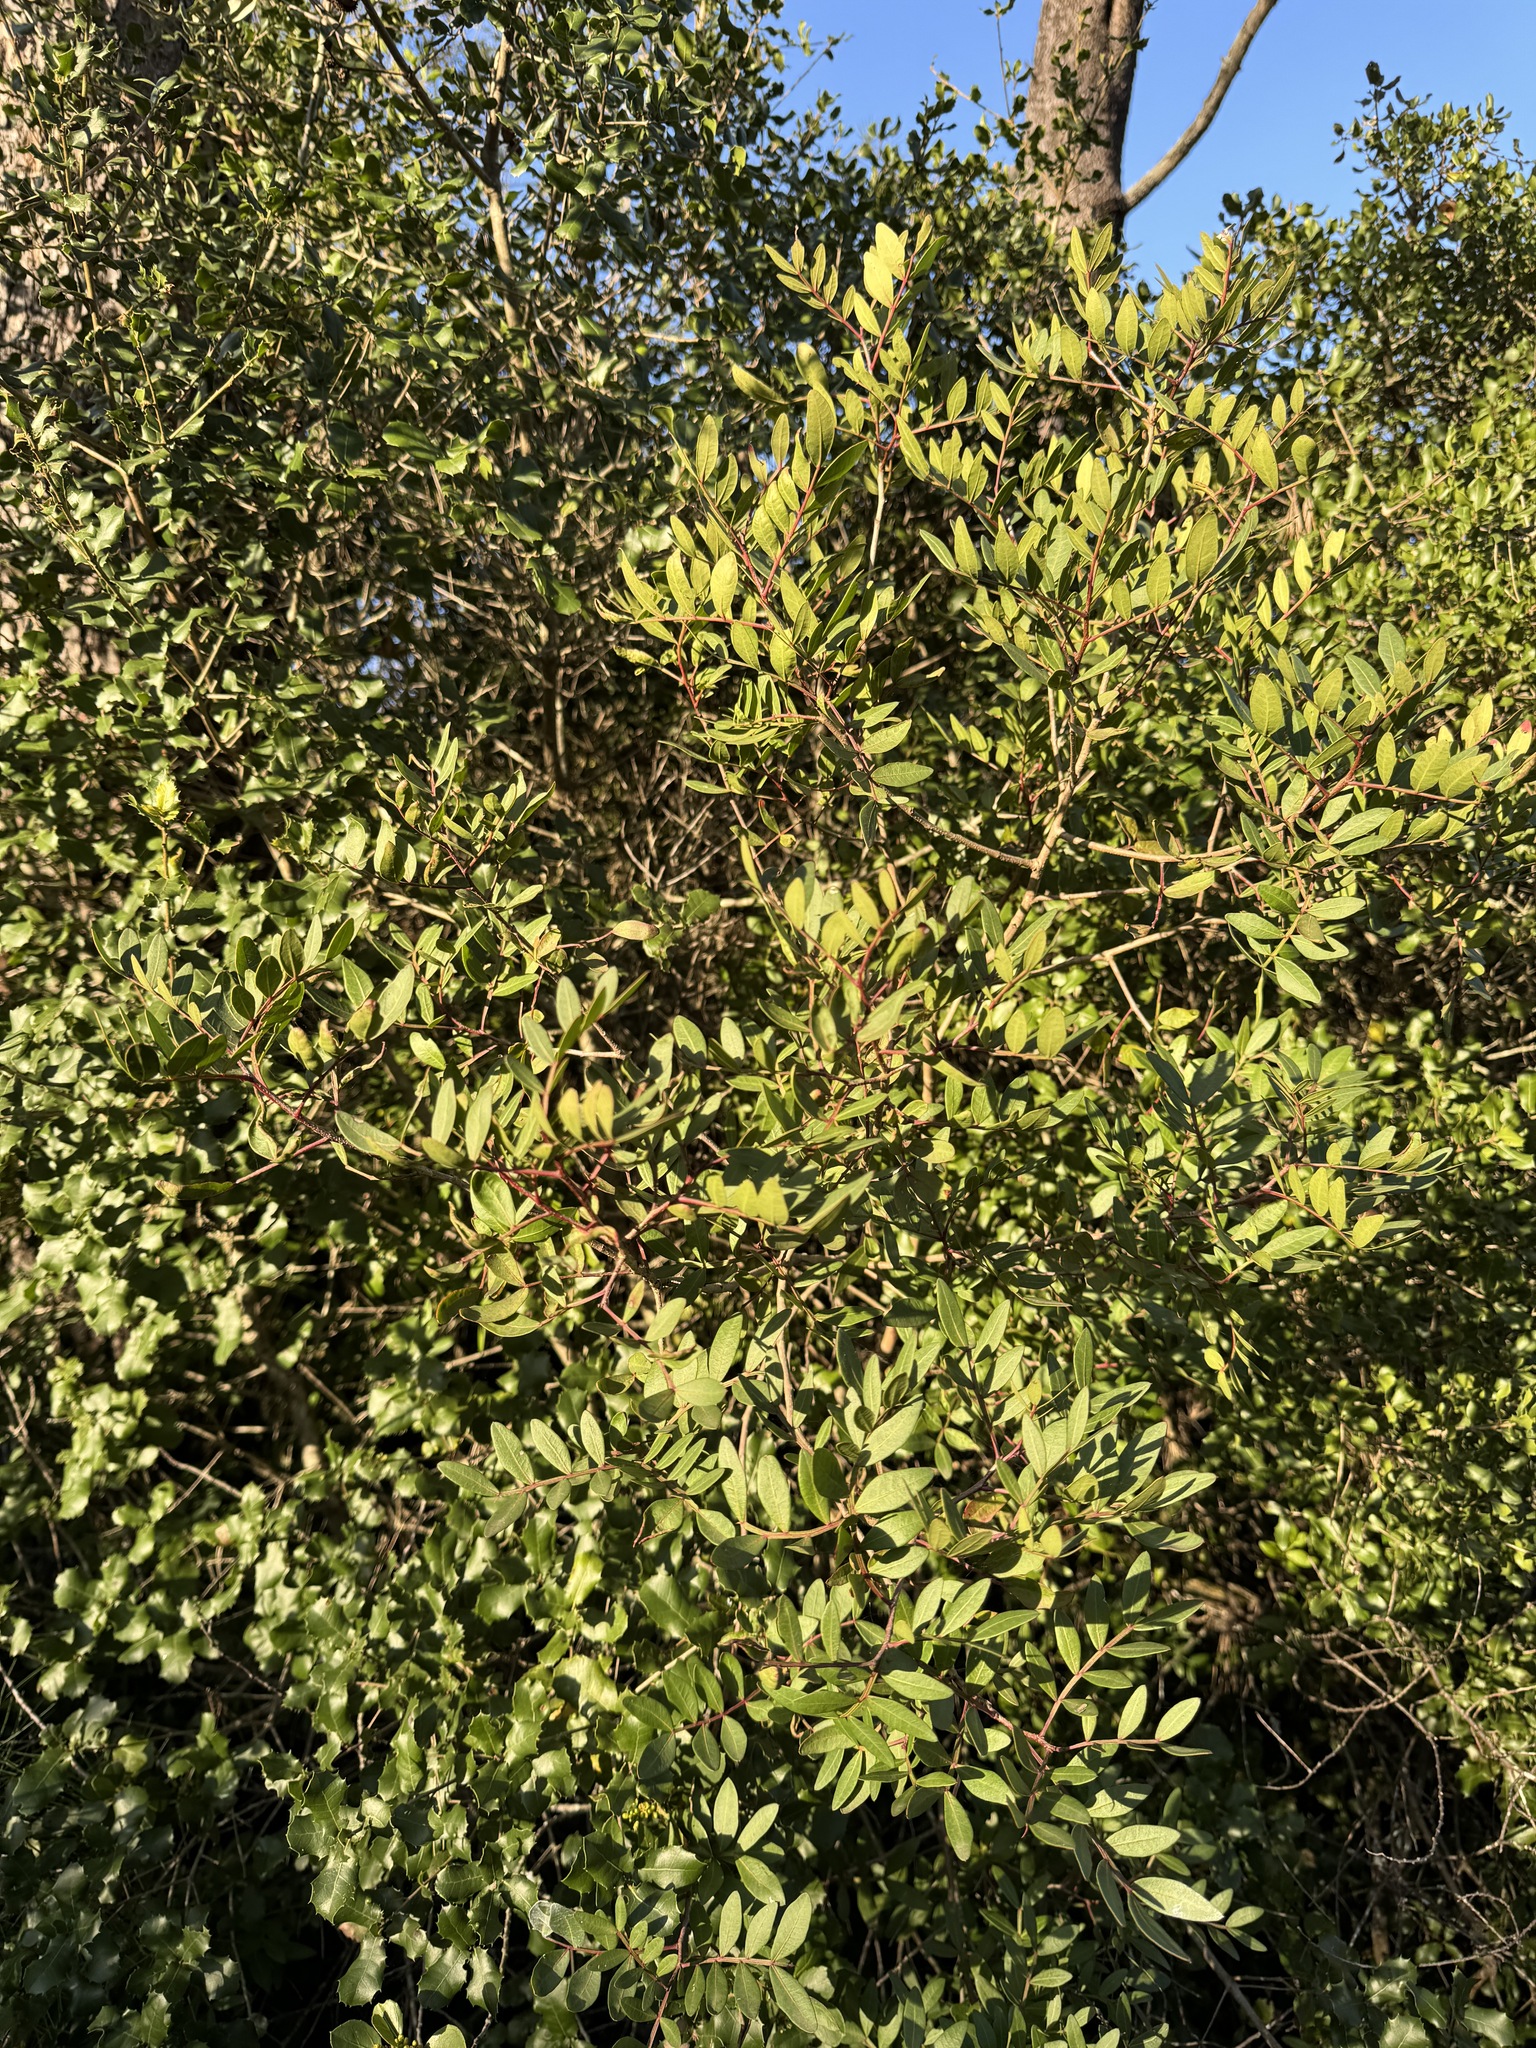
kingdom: Plantae
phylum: Tracheophyta
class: Magnoliopsida
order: Sapindales
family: Anacardiaceae
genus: Pistacia
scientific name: Pistacia lentiscus
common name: Lentisk
